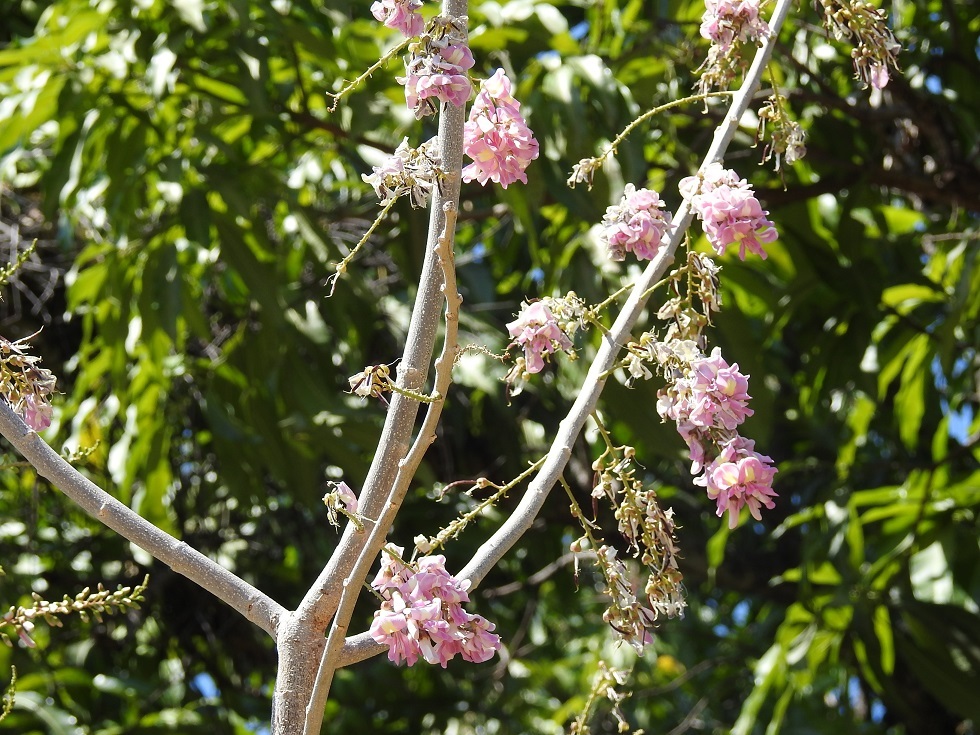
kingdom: Plantae
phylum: Tracheophyta
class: Magnoliopsida
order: Fabales
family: Fabaceae
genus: Gliricidia
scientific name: Gliricidia sepium
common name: Quickstick
